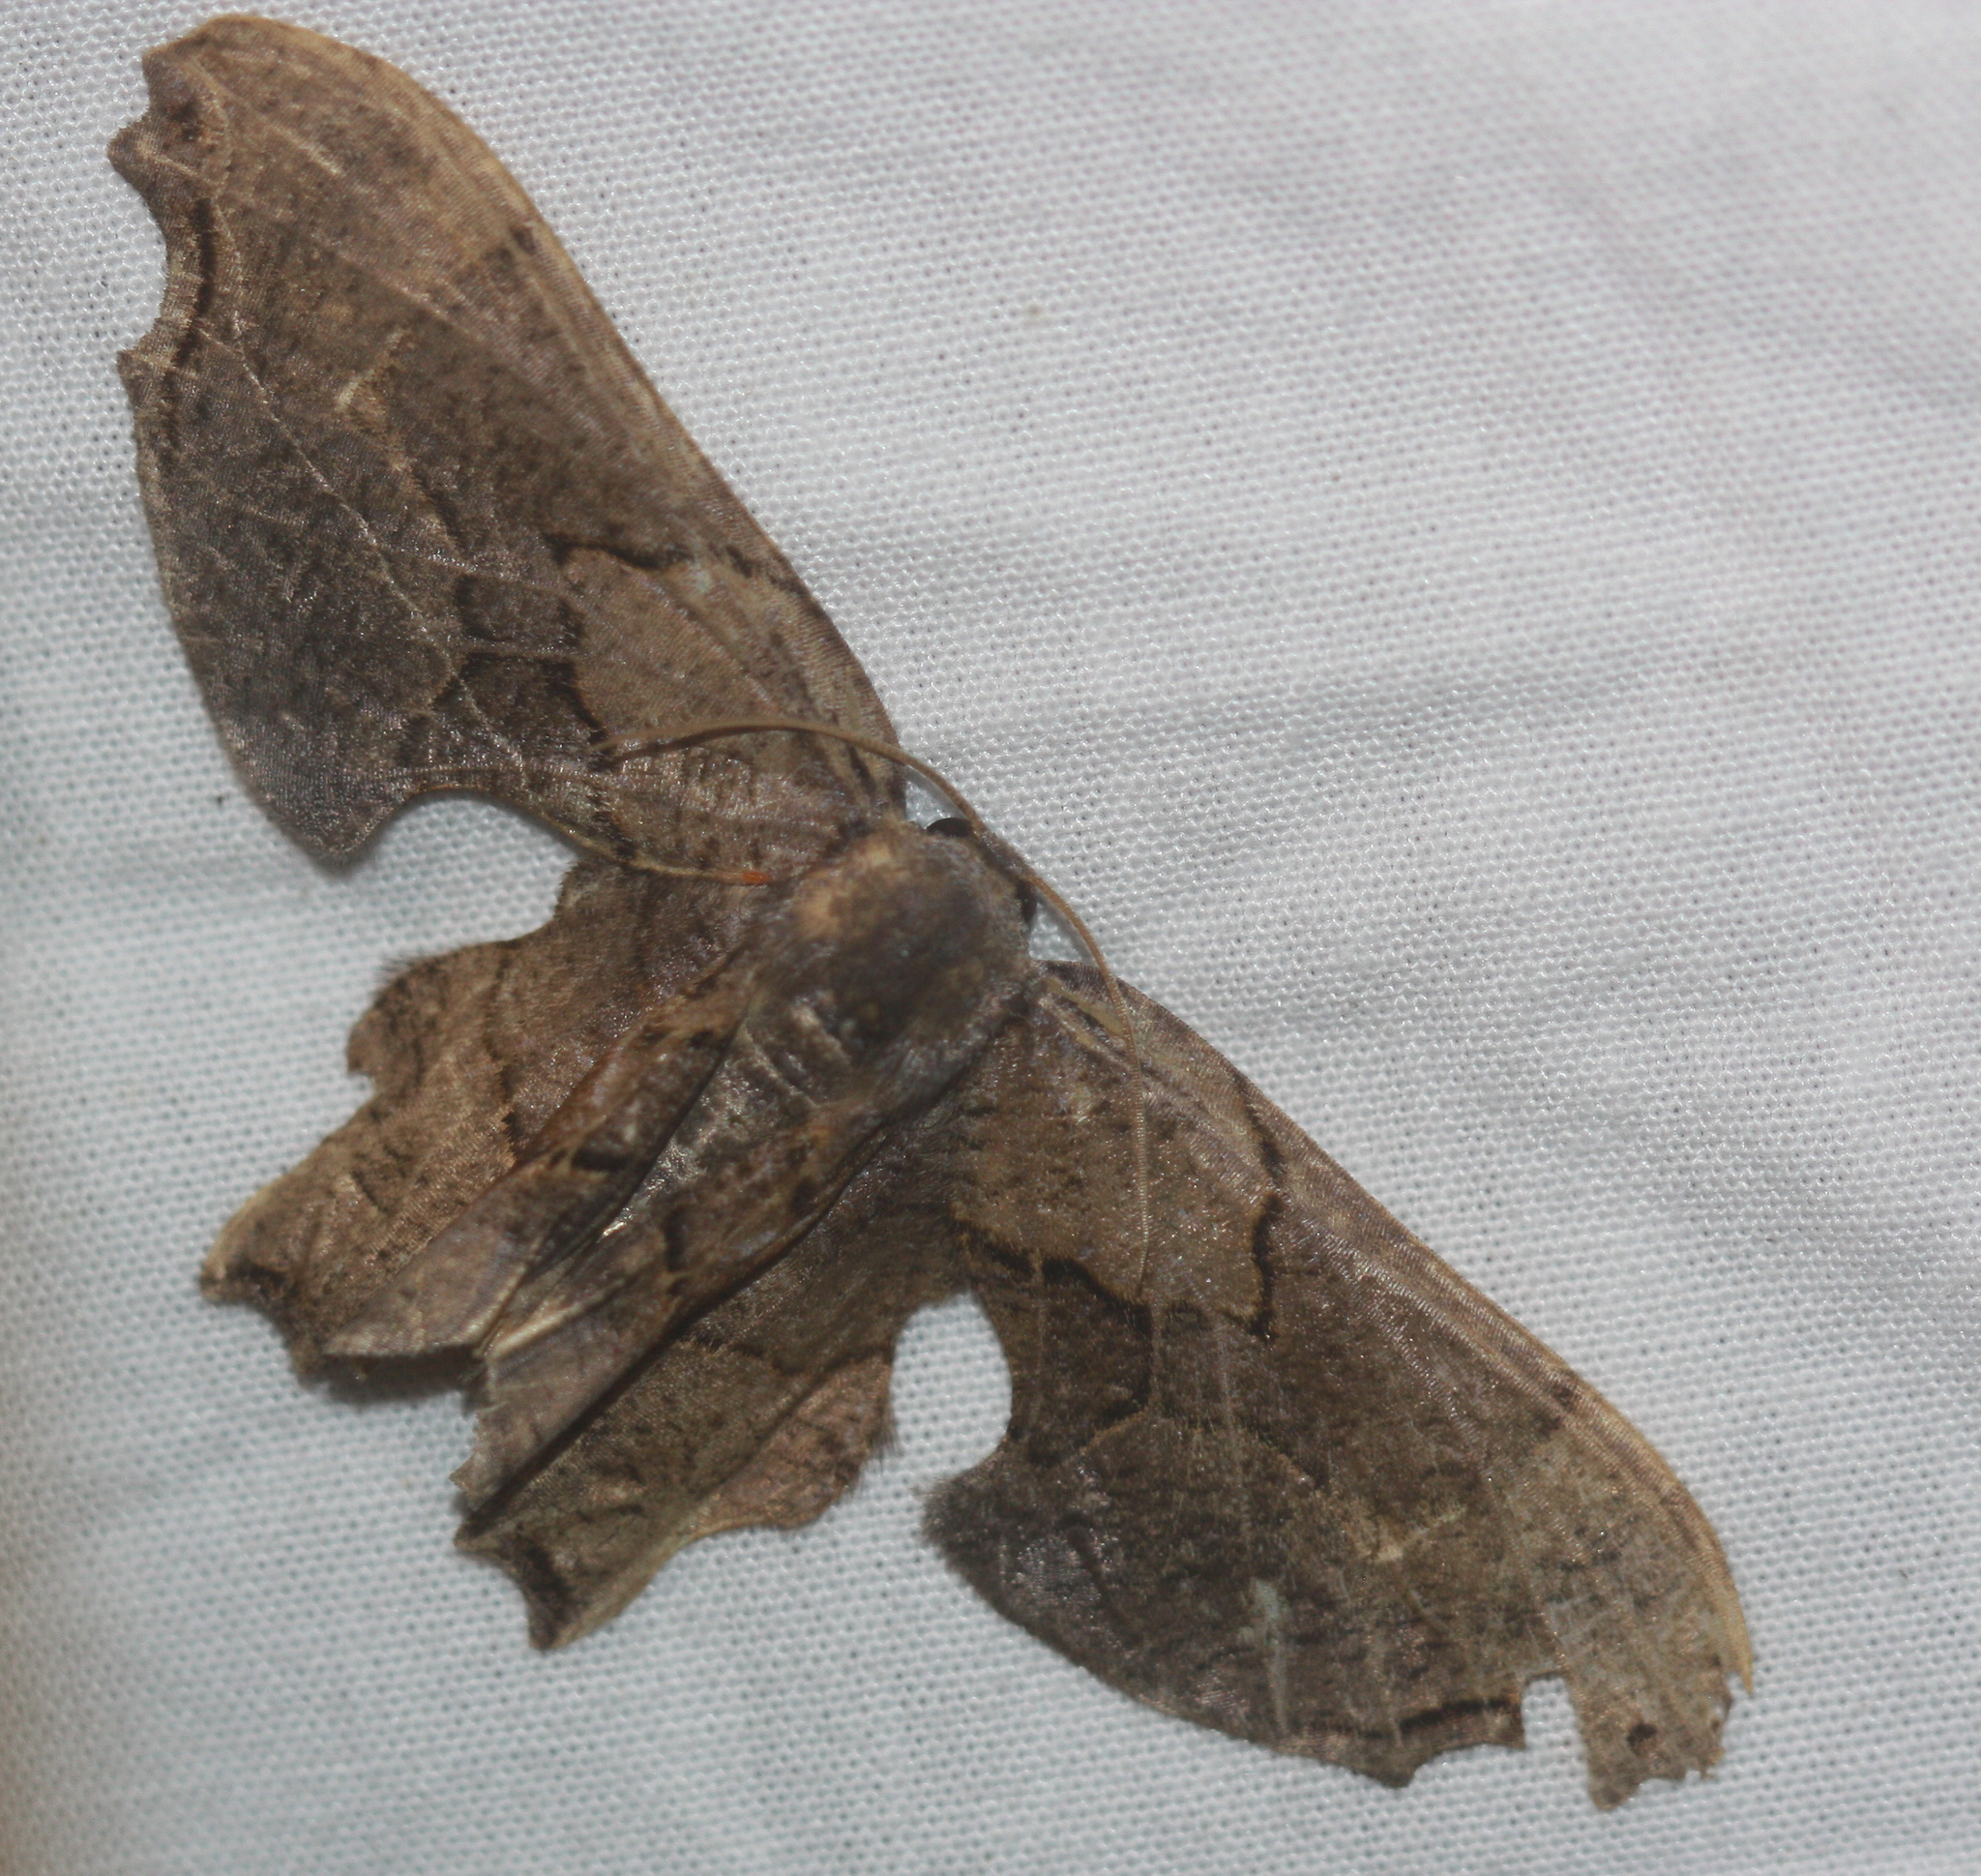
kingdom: Animalia
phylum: Arthropoda
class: Insecta
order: Lepidoptera
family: Uraniidae
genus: Epiplema
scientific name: Epiplema Erosia veninotata
